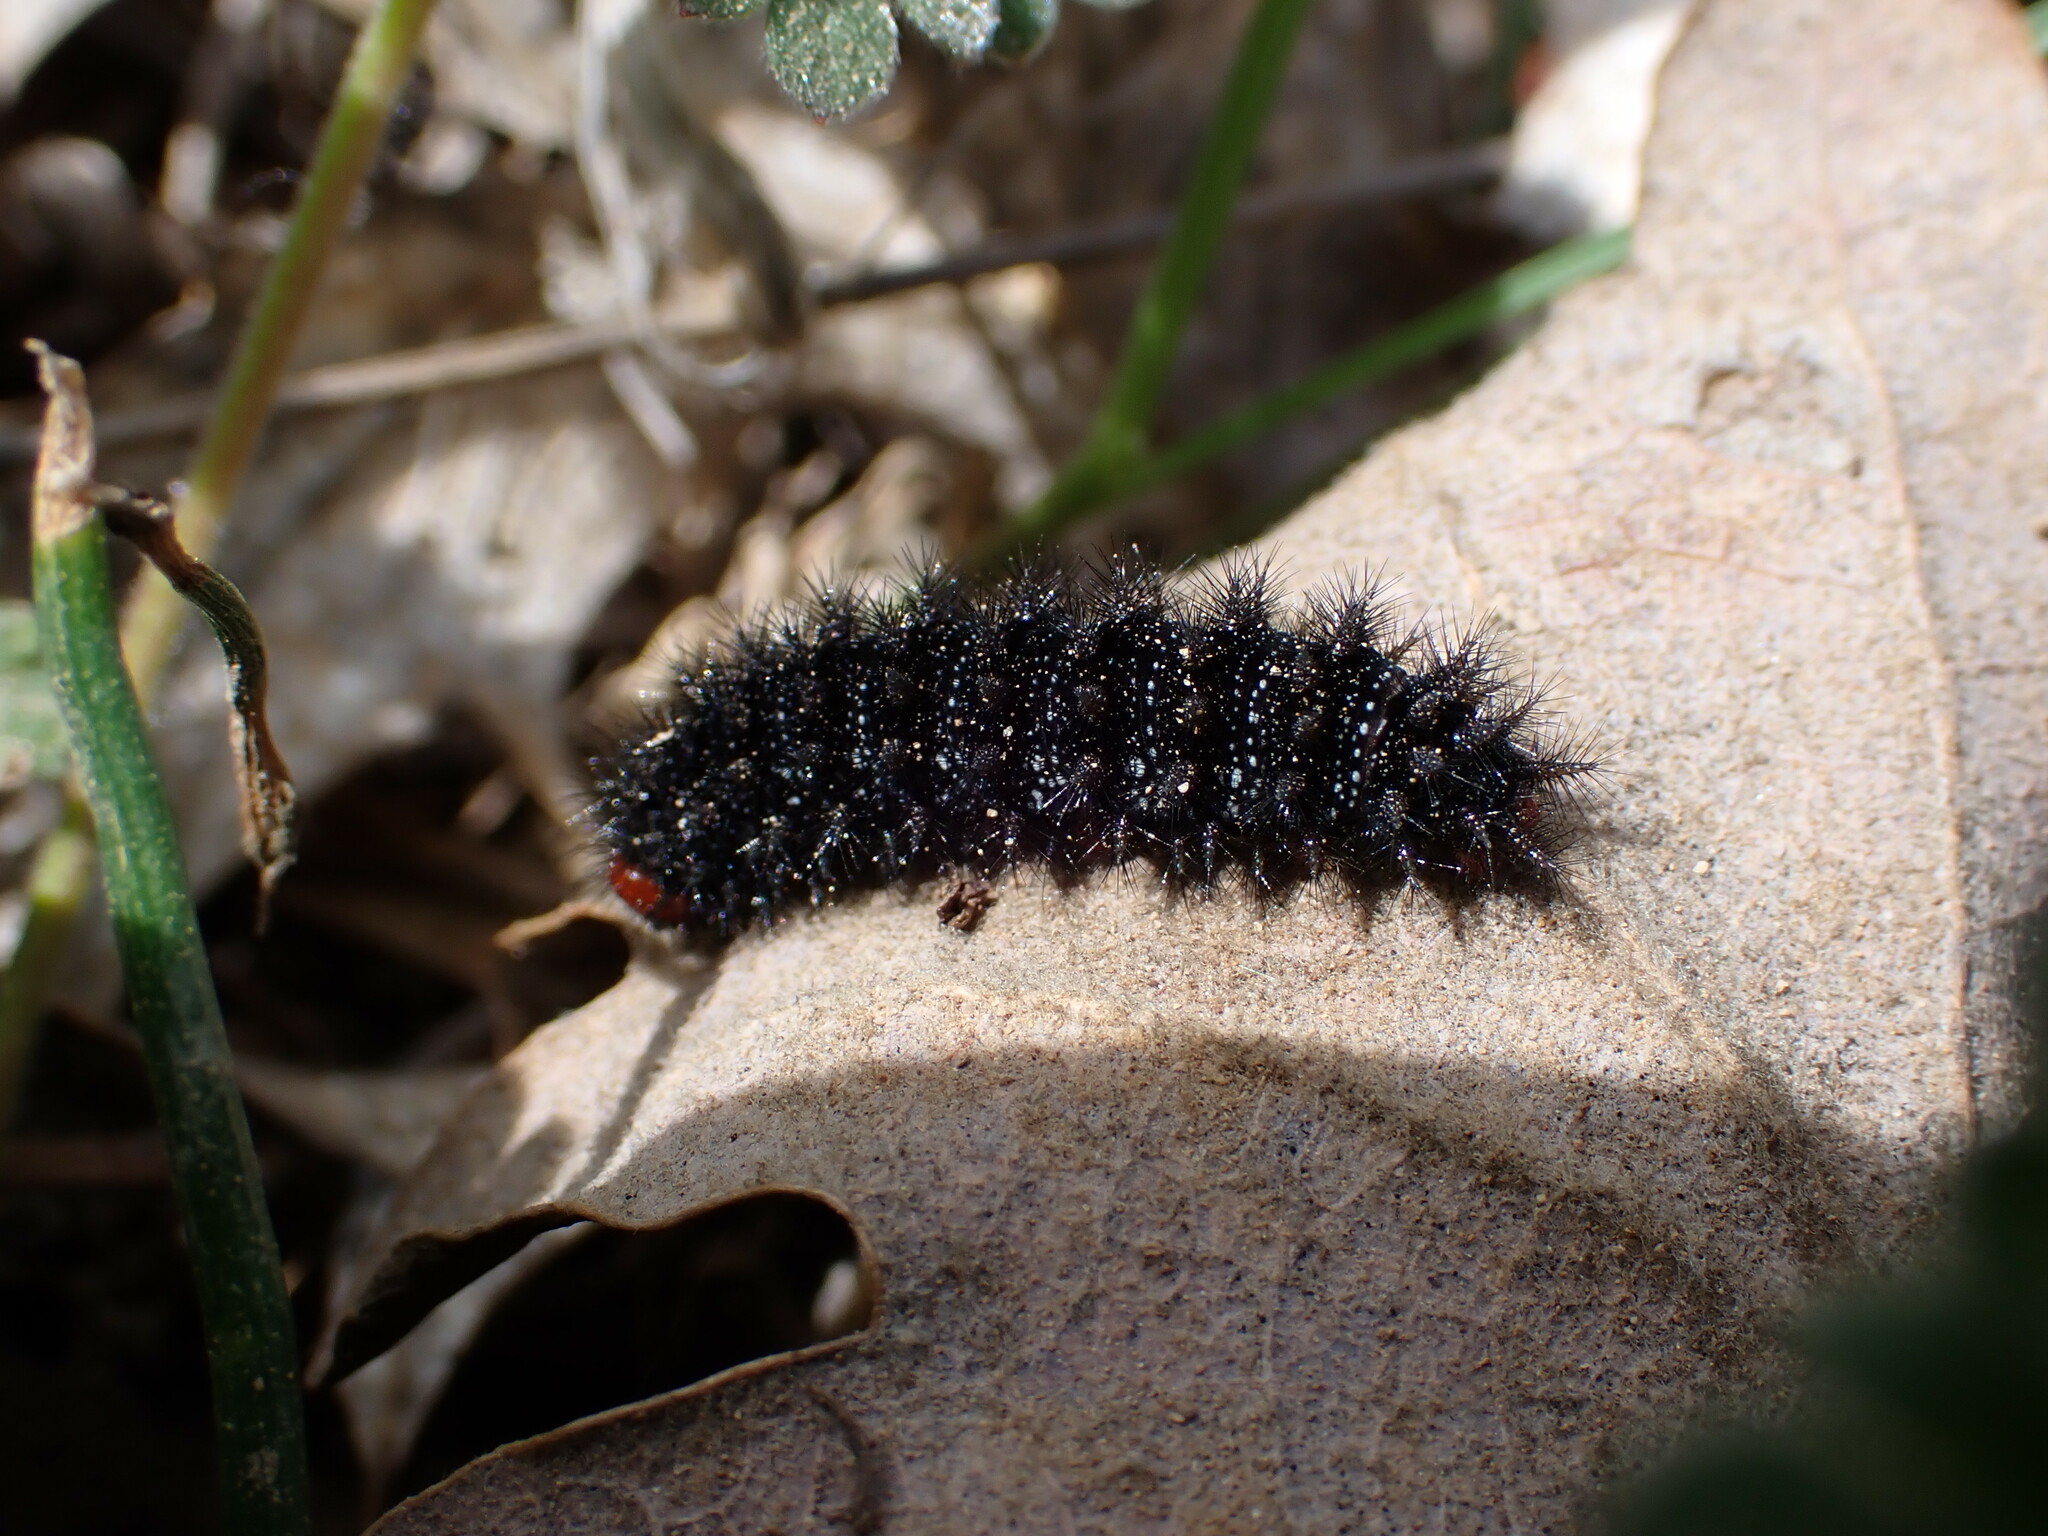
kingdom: Animalia
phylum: Arthropoda
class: Insecta
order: Lepidoptera
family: Nymphalidae
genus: Melitaea
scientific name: Melitaea cinxia
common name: Glanville fritillary
